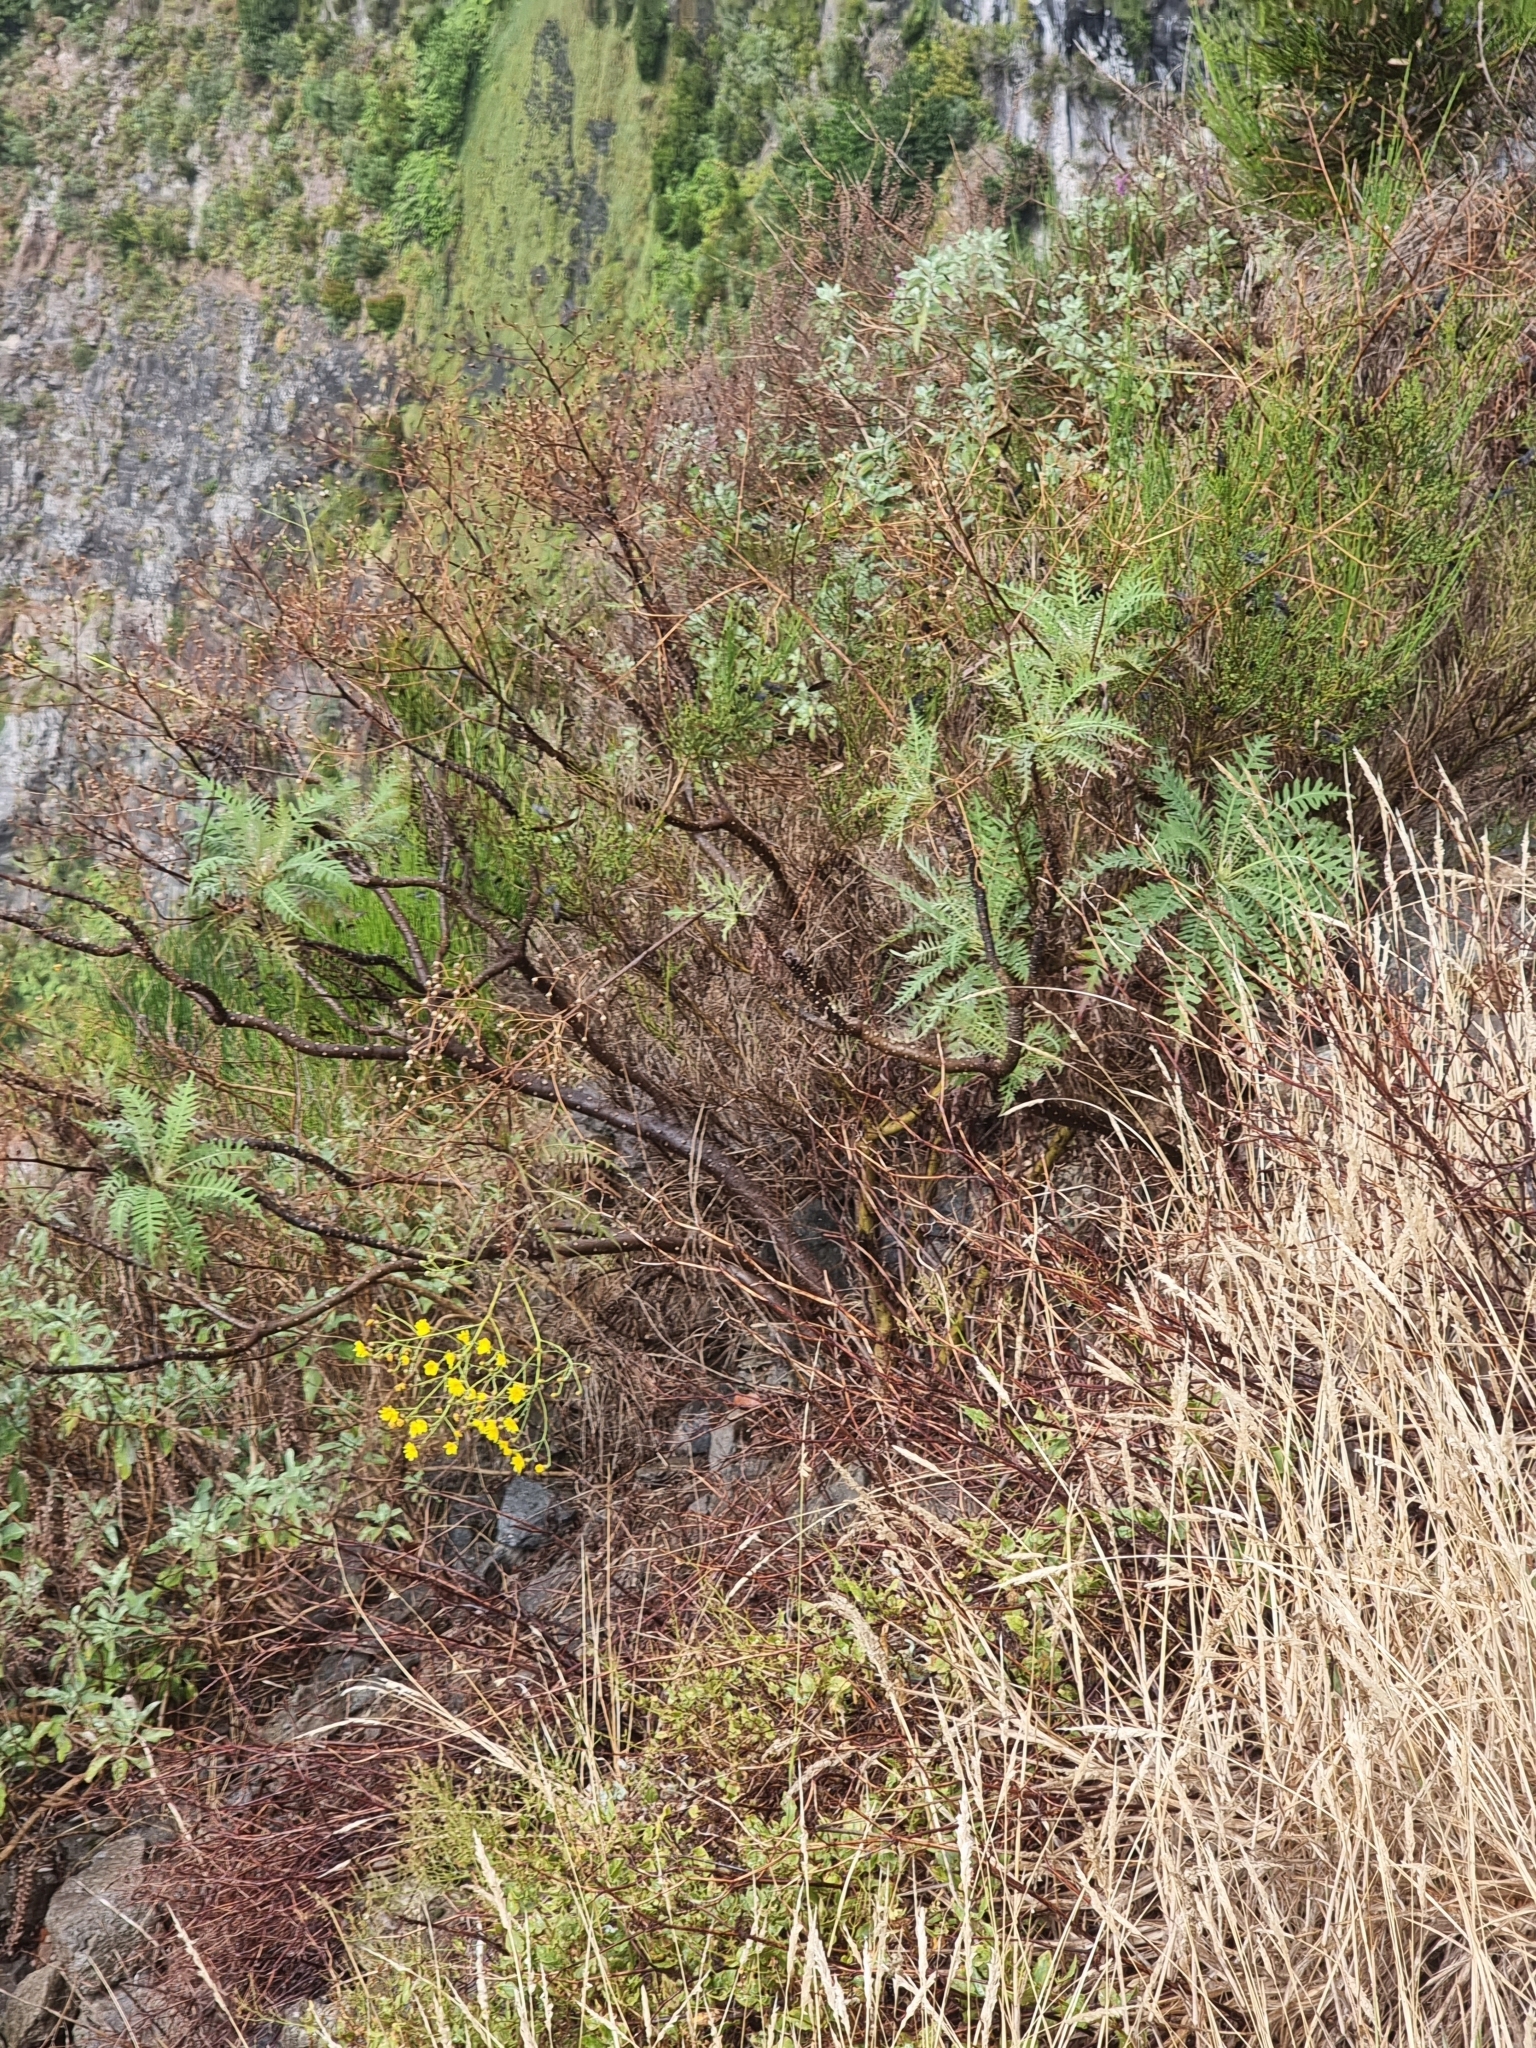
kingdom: Plantae
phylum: Tracheophyta
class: Magnoliopsida
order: Asterales
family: Asteraceae
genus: Sonchus
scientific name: Sonchus pinnatus
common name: Wing-leaved sow-thistle
